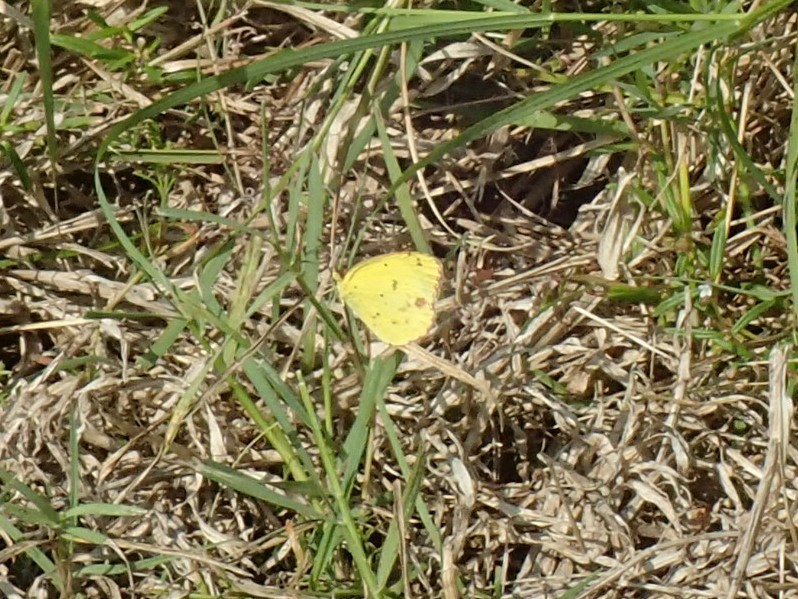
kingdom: Animalia
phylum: Arthropoda
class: Insecta
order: Lepidoptera
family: Pieridae
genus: Pyrisitia
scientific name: Pyrisitia lisa
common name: Little yellow
